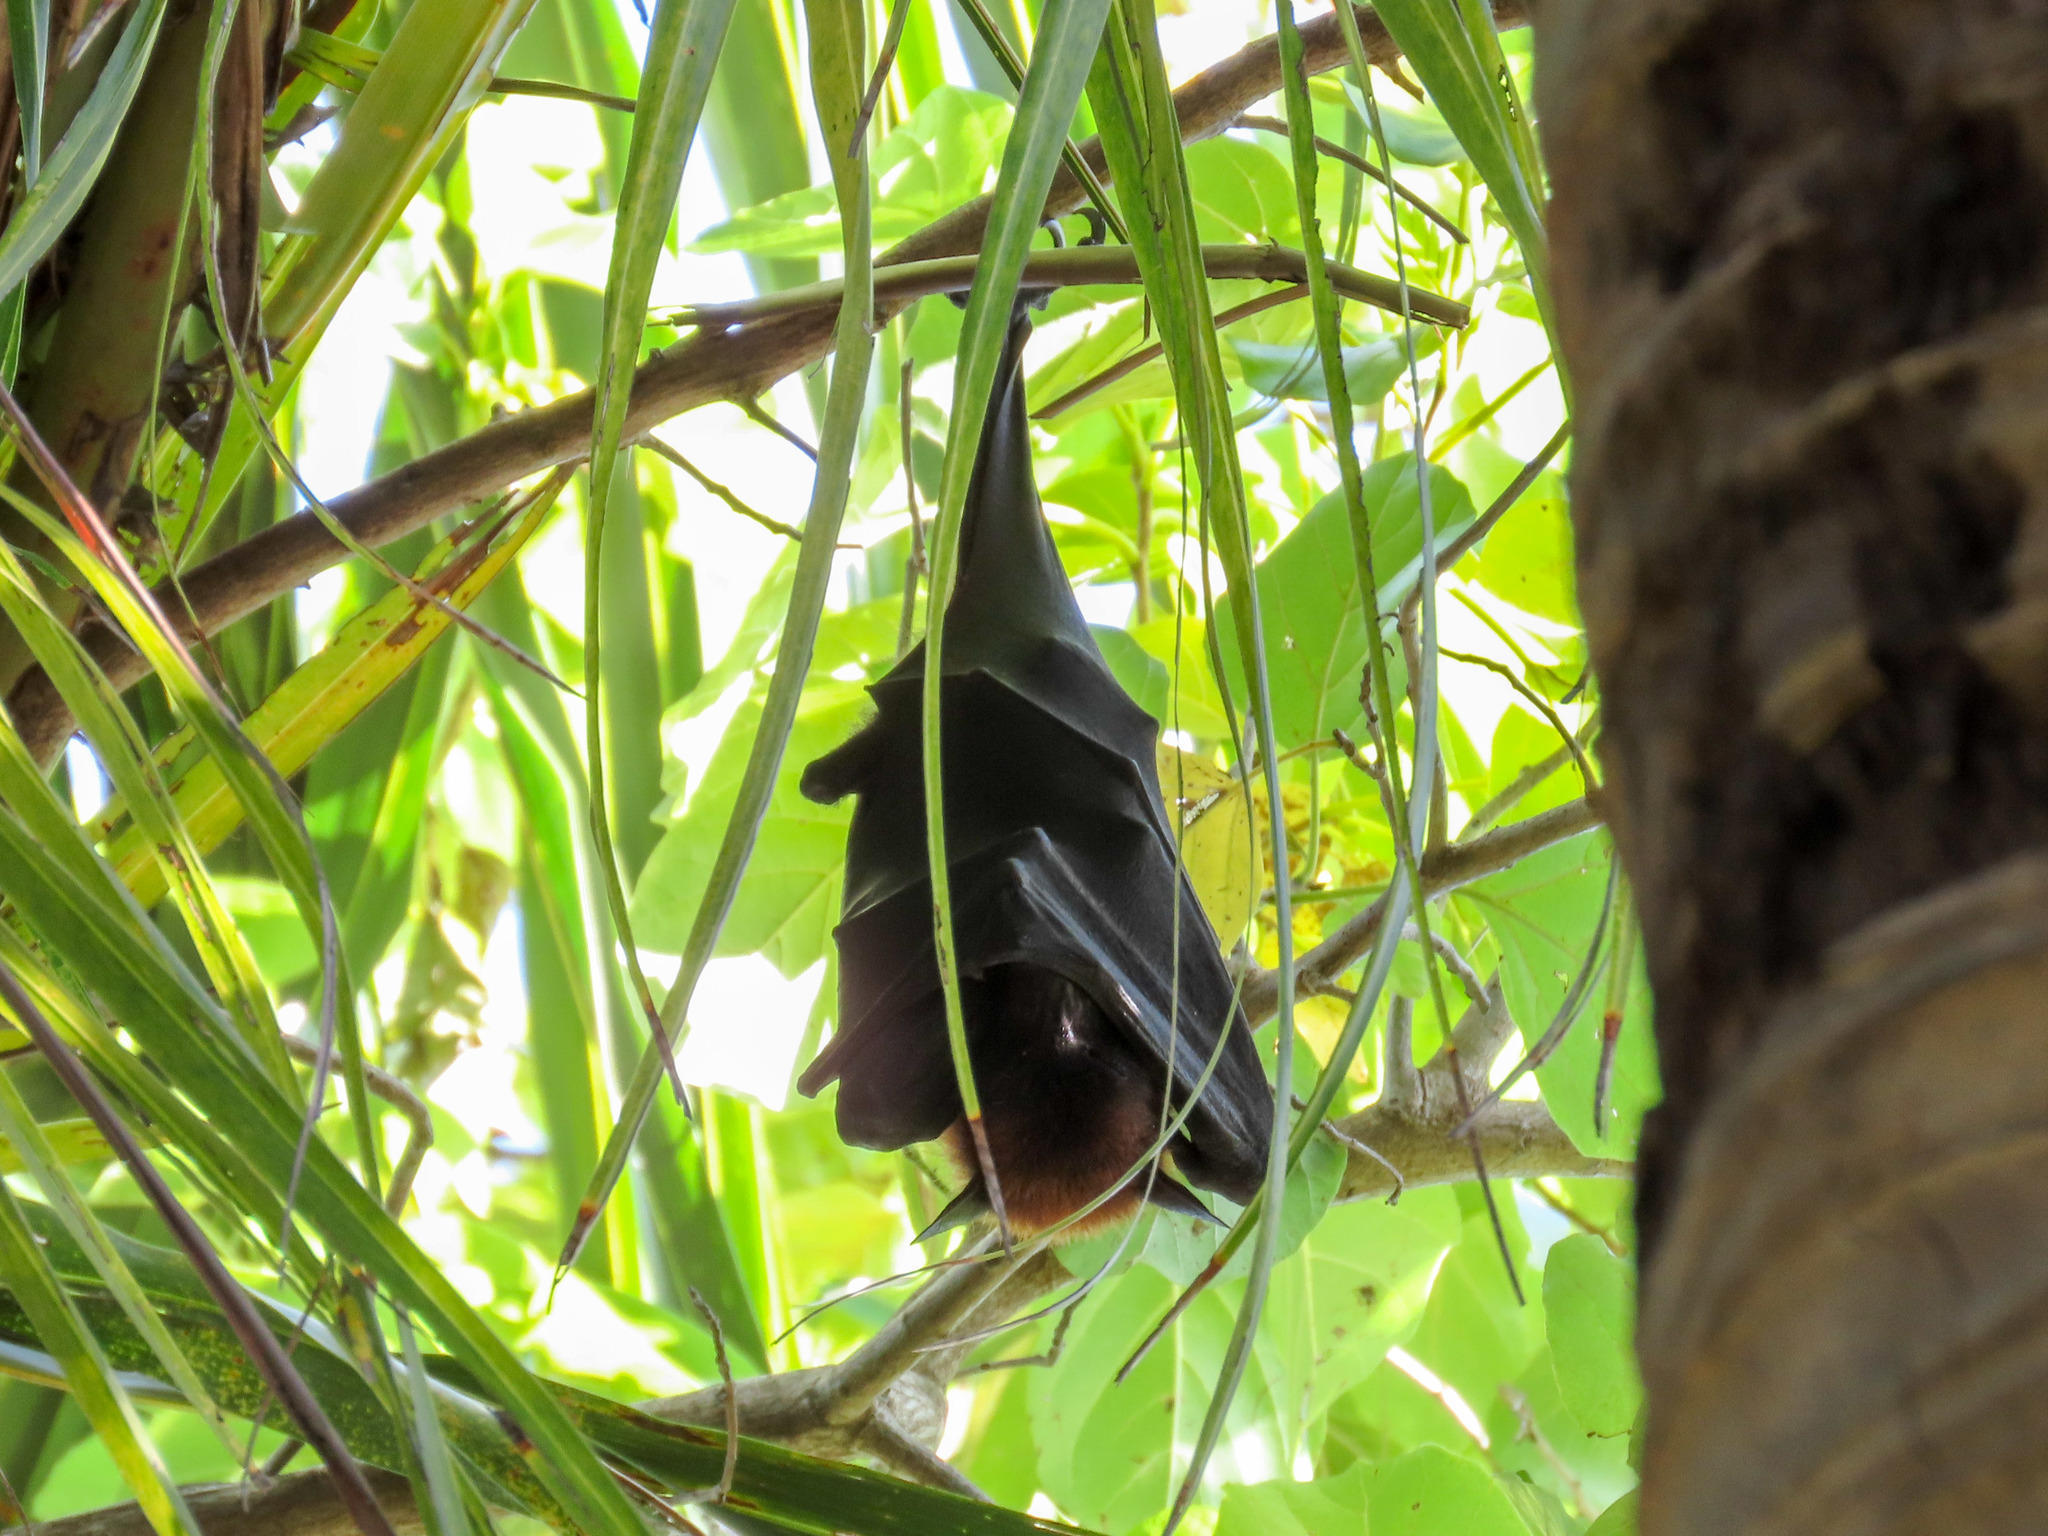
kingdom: Animalia
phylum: Chordata
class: Mammalia
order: Chiroptera
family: Pteropodidae
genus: Pteropus
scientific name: Pteropus vampyrus
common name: Large flying fox
